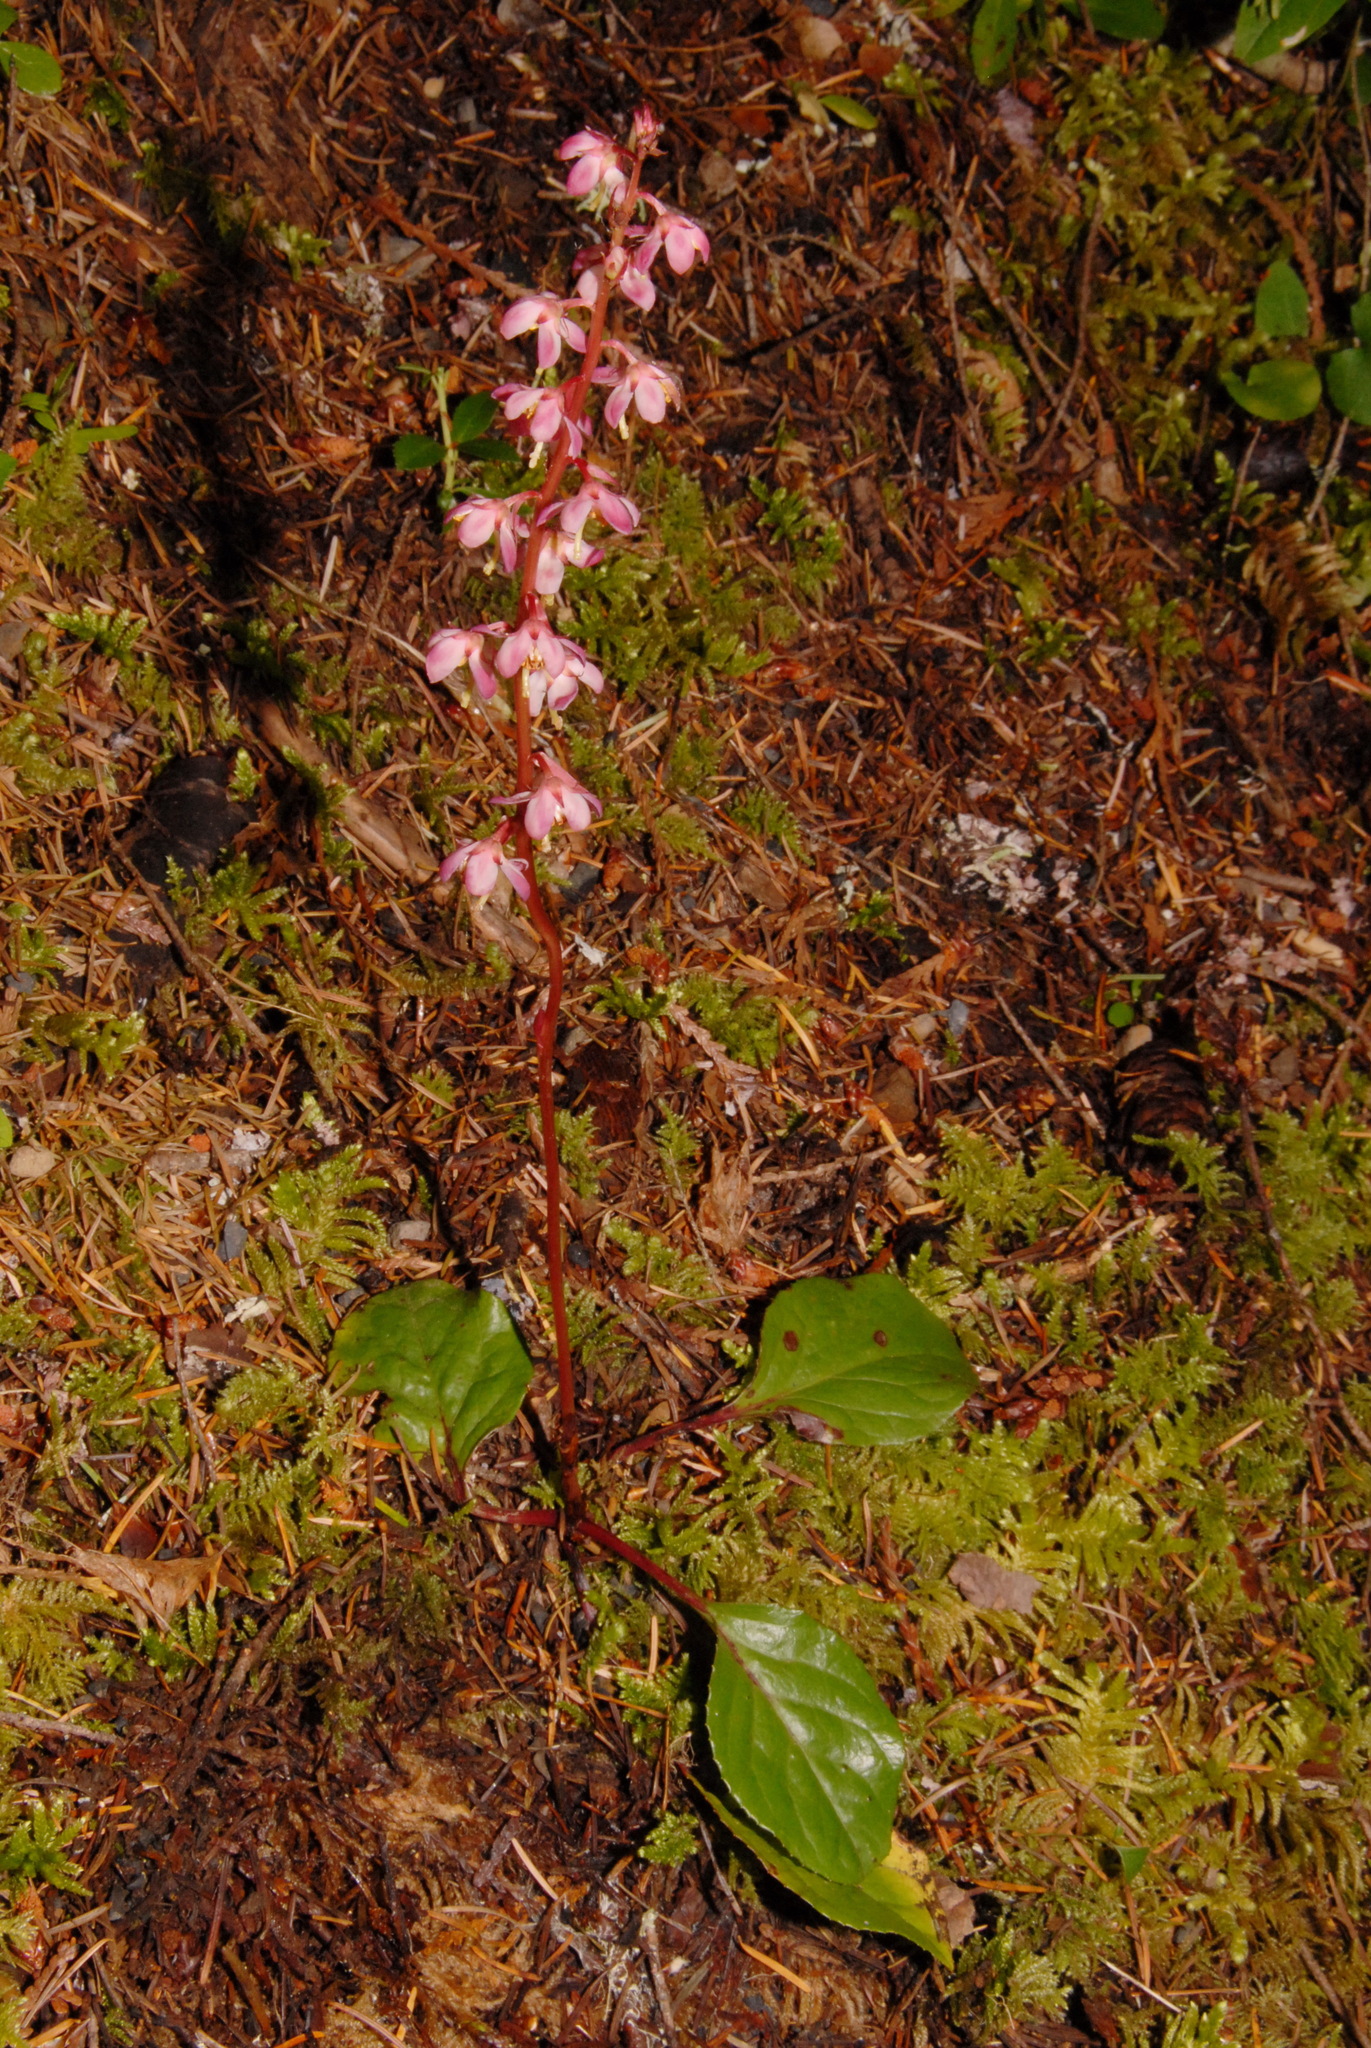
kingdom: Plantae
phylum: Tracheophyta
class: Magnoliopsida
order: Ericales
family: Ericaceae
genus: Pyrola
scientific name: Pyrola asarifolia
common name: Bog wintergreen
